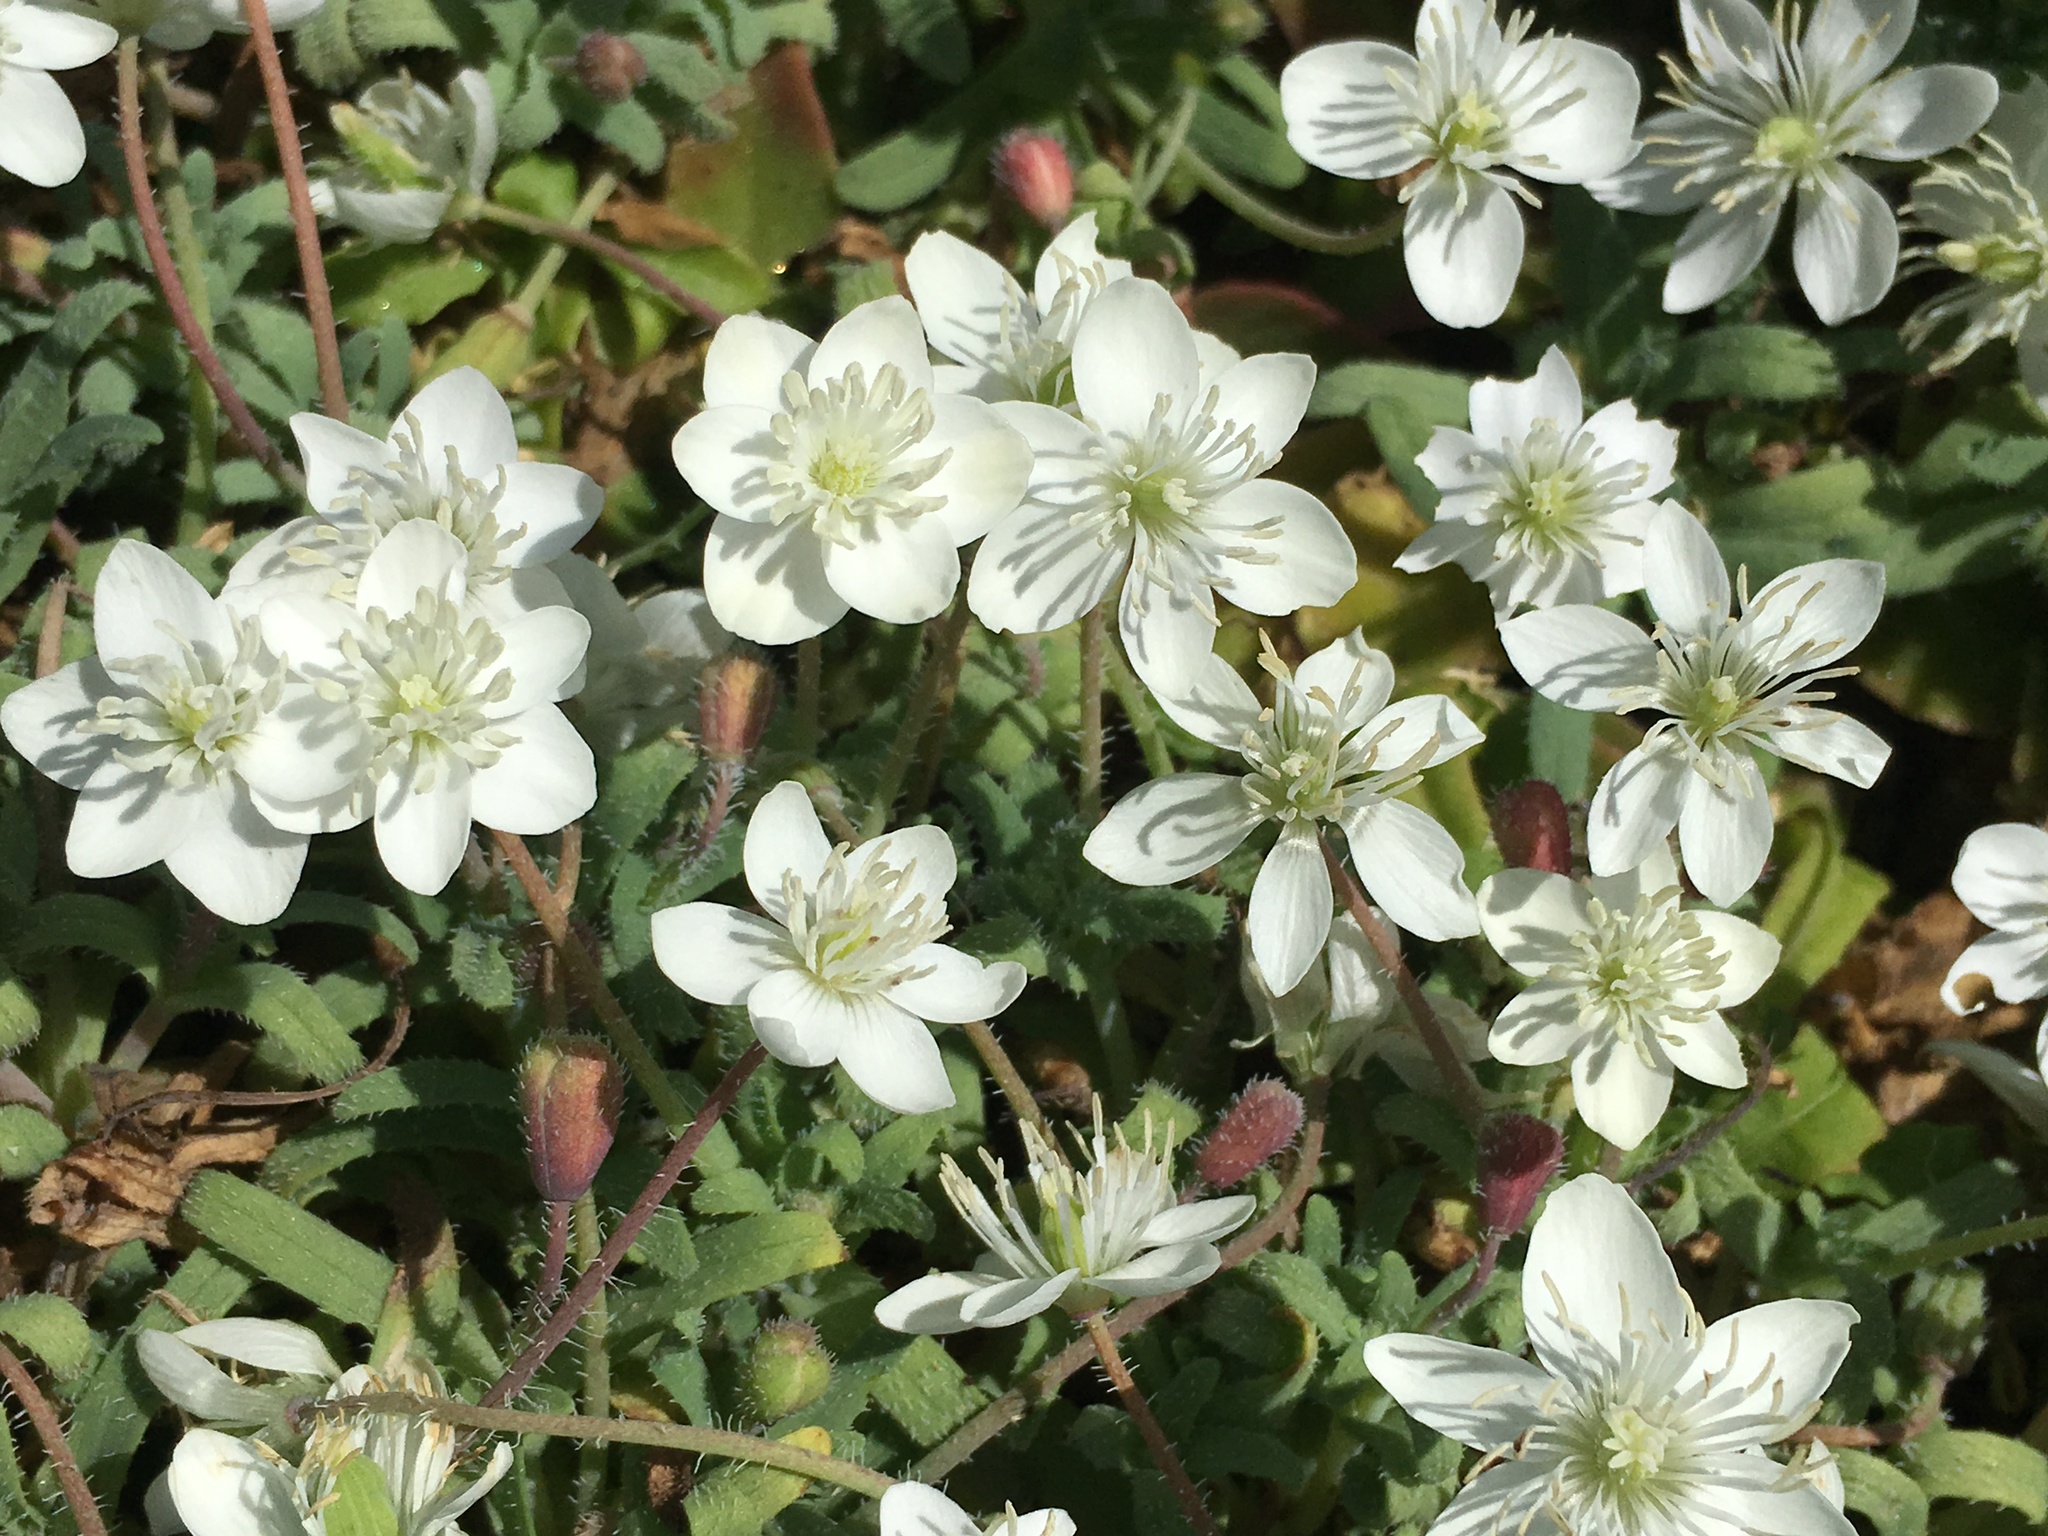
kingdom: Plantae
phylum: Tracheophyta
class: Magnoliopsida
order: Ranunculales
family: Papaveraceae
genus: Platystemon
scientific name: Platystemon californicus
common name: Cream-cups
